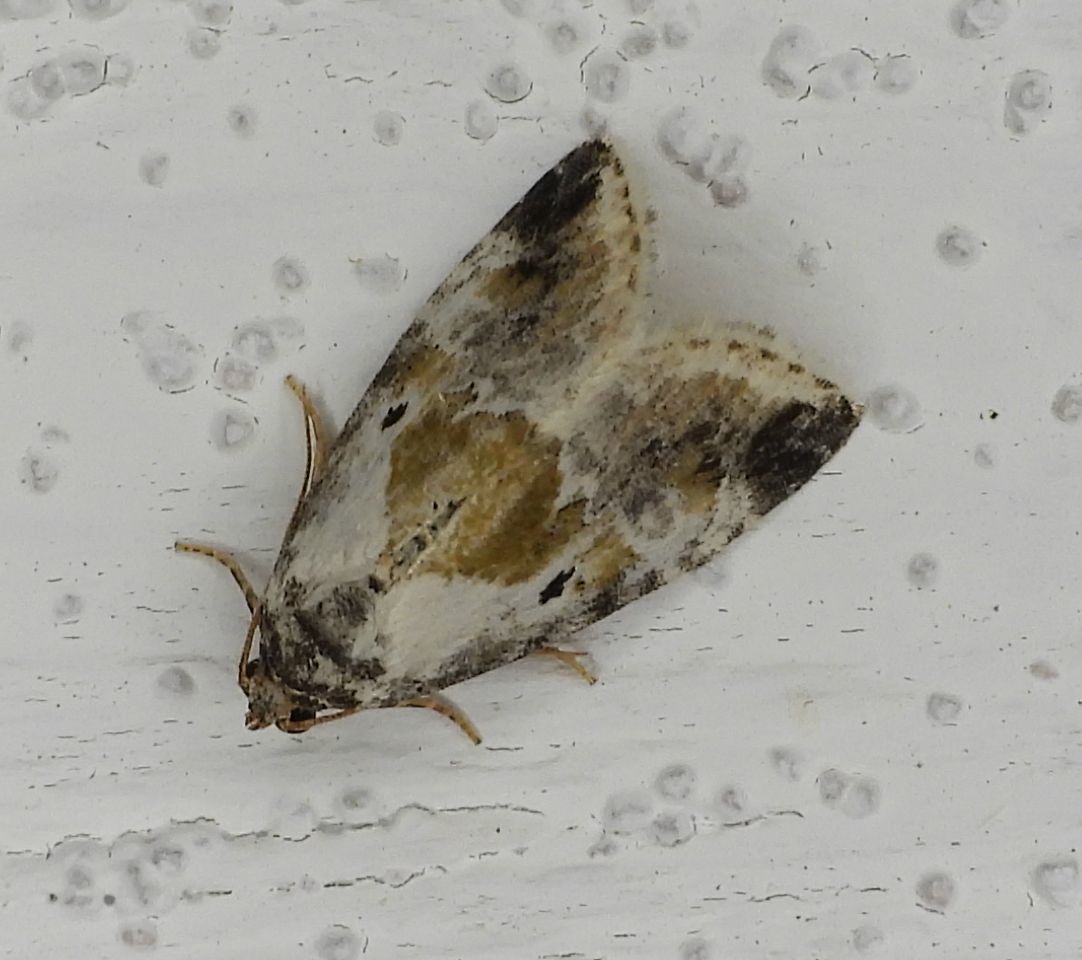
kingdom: Animalia
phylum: Arthropoda
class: Insecta
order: Lepidoptera
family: Noctuidae
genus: Maliattha
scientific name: Maliattha synochitis
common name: Black-dotted glyph
